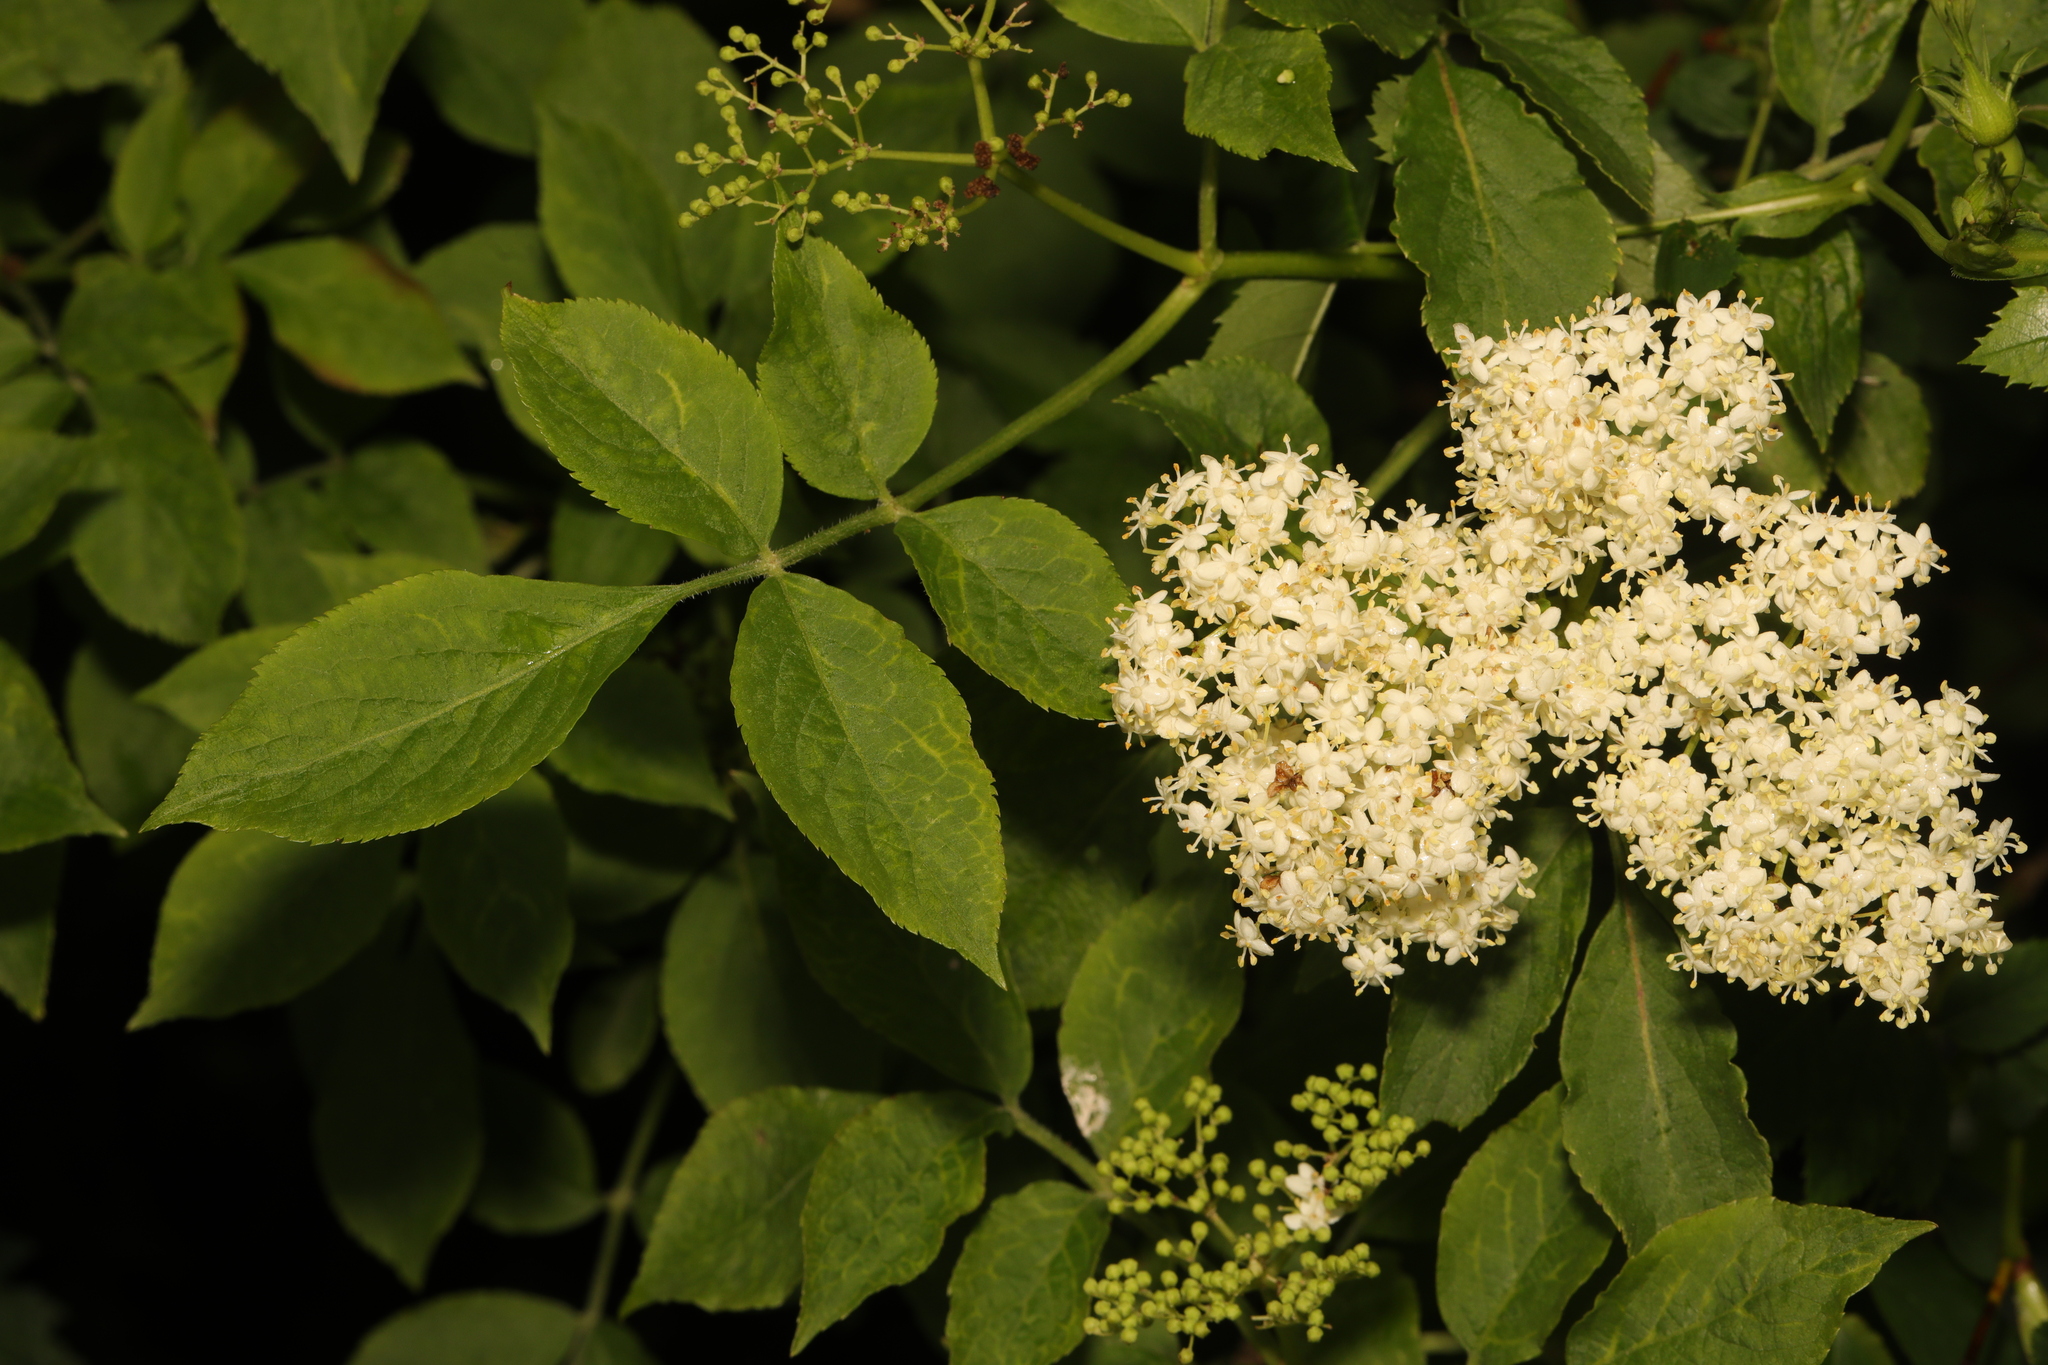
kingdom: Plantae
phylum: Tracheophyta
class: Magnoliopsida
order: Dipsacales
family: Viburnaceae
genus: Sambucus
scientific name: Sambucus nigra
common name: Elder
